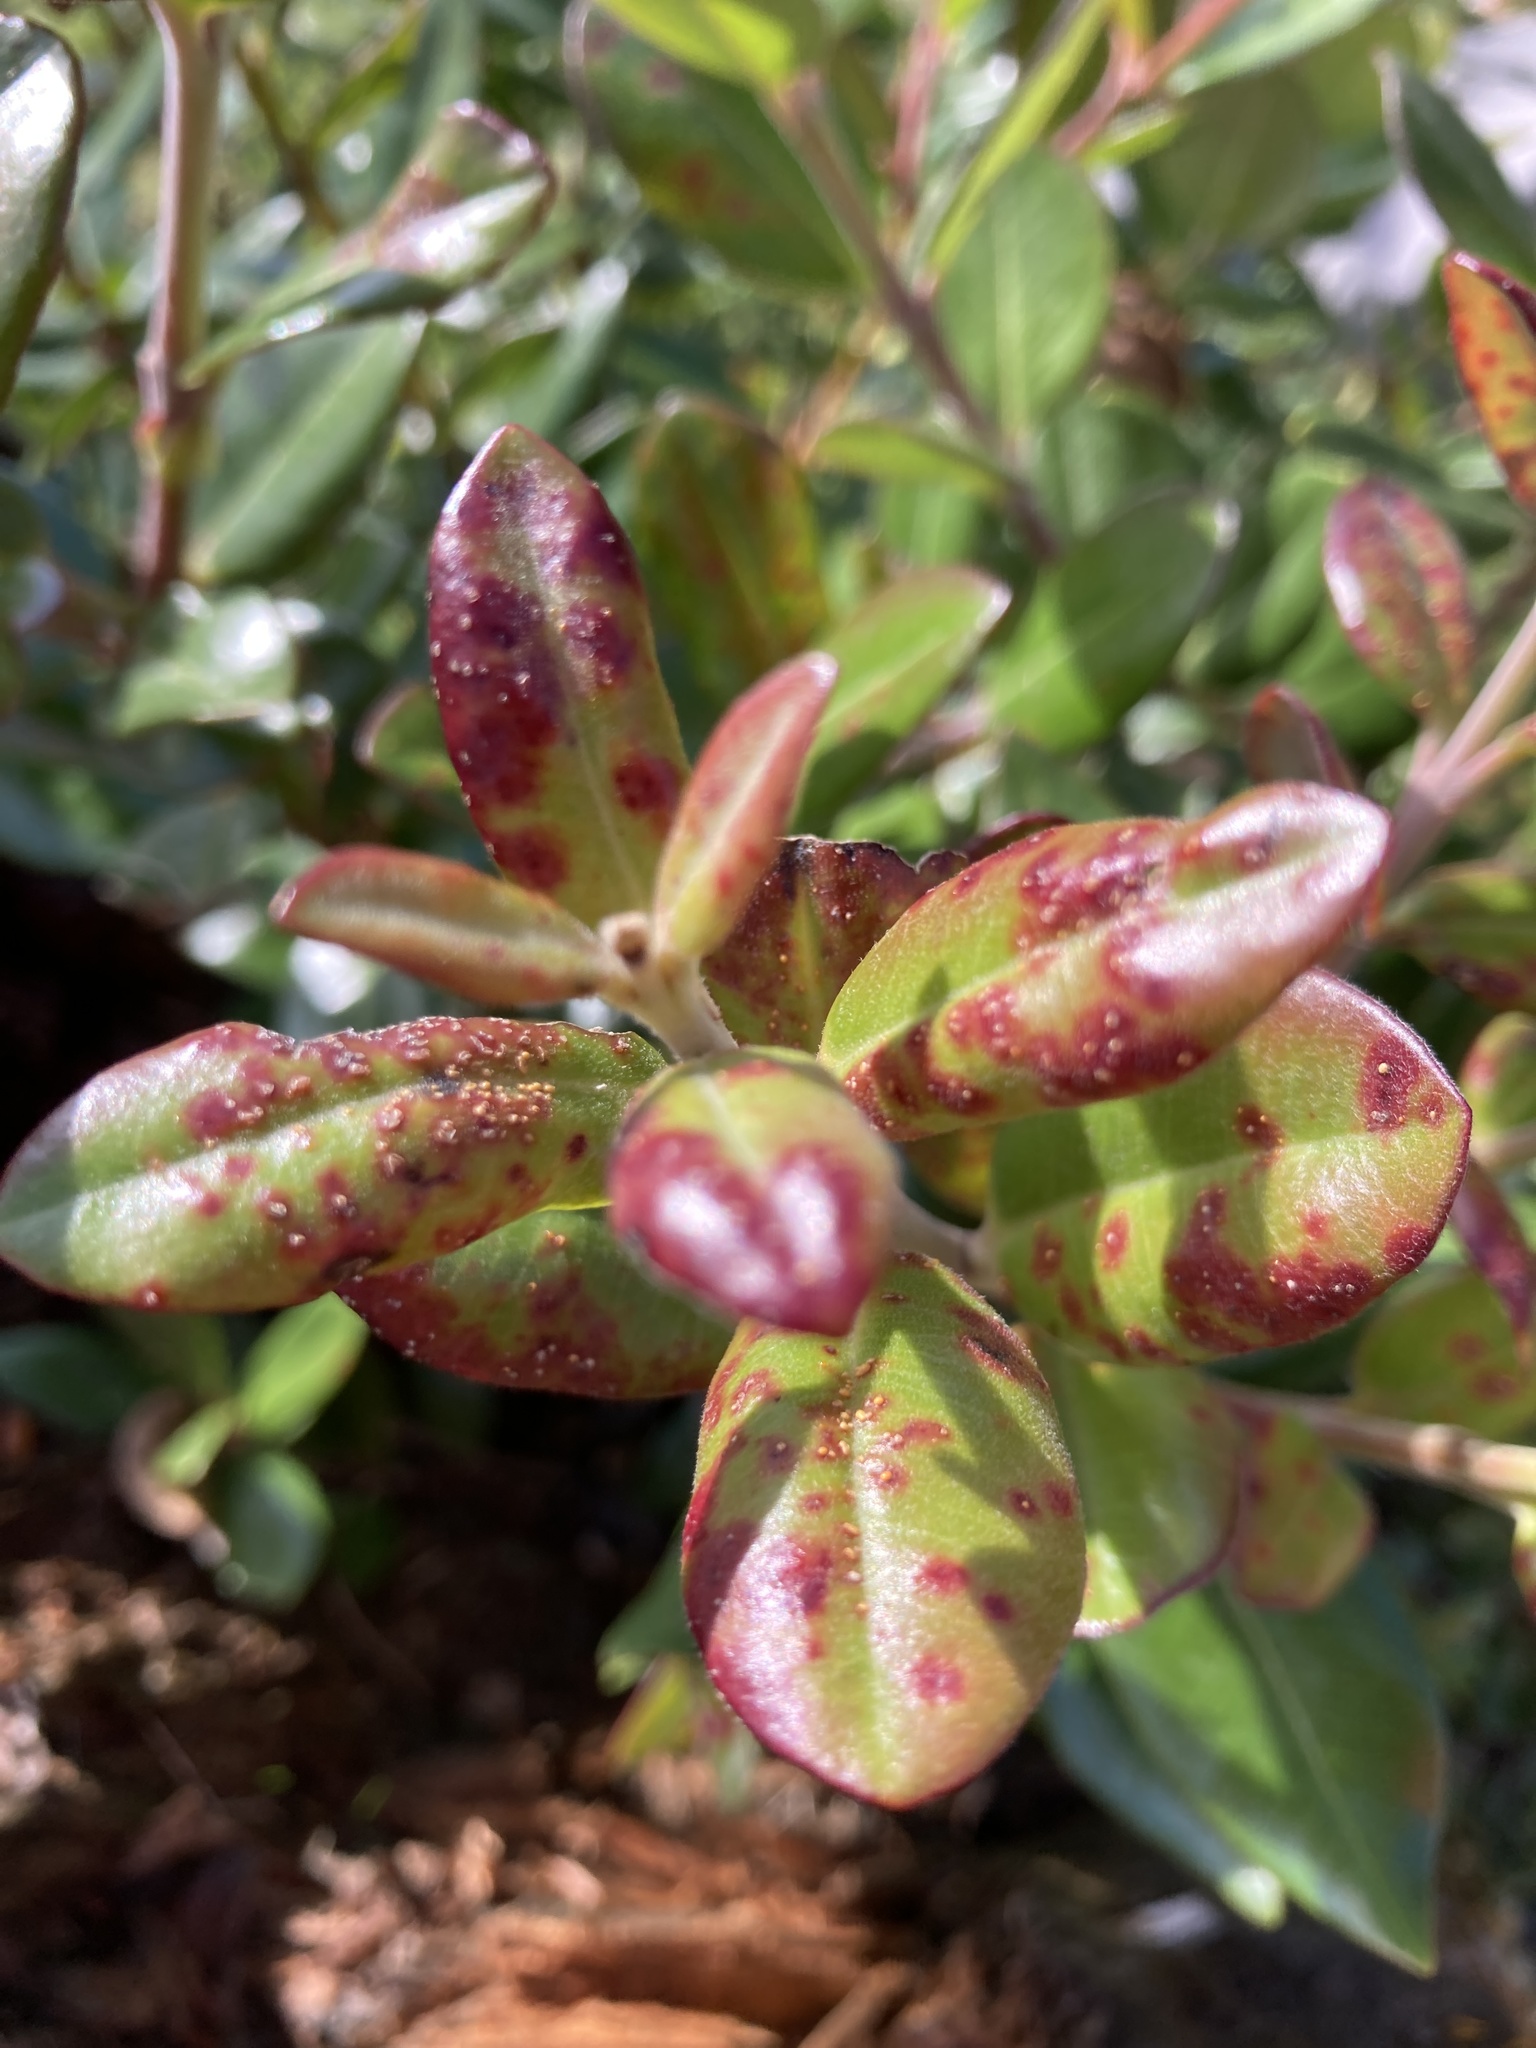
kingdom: Fungi
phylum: Basidiomycota
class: Pucciniomycetes
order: Pucciniales
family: Sphaerophragmiaceae
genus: Austropuccinia
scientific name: Austropuccinia psidii
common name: Myrtle rust
